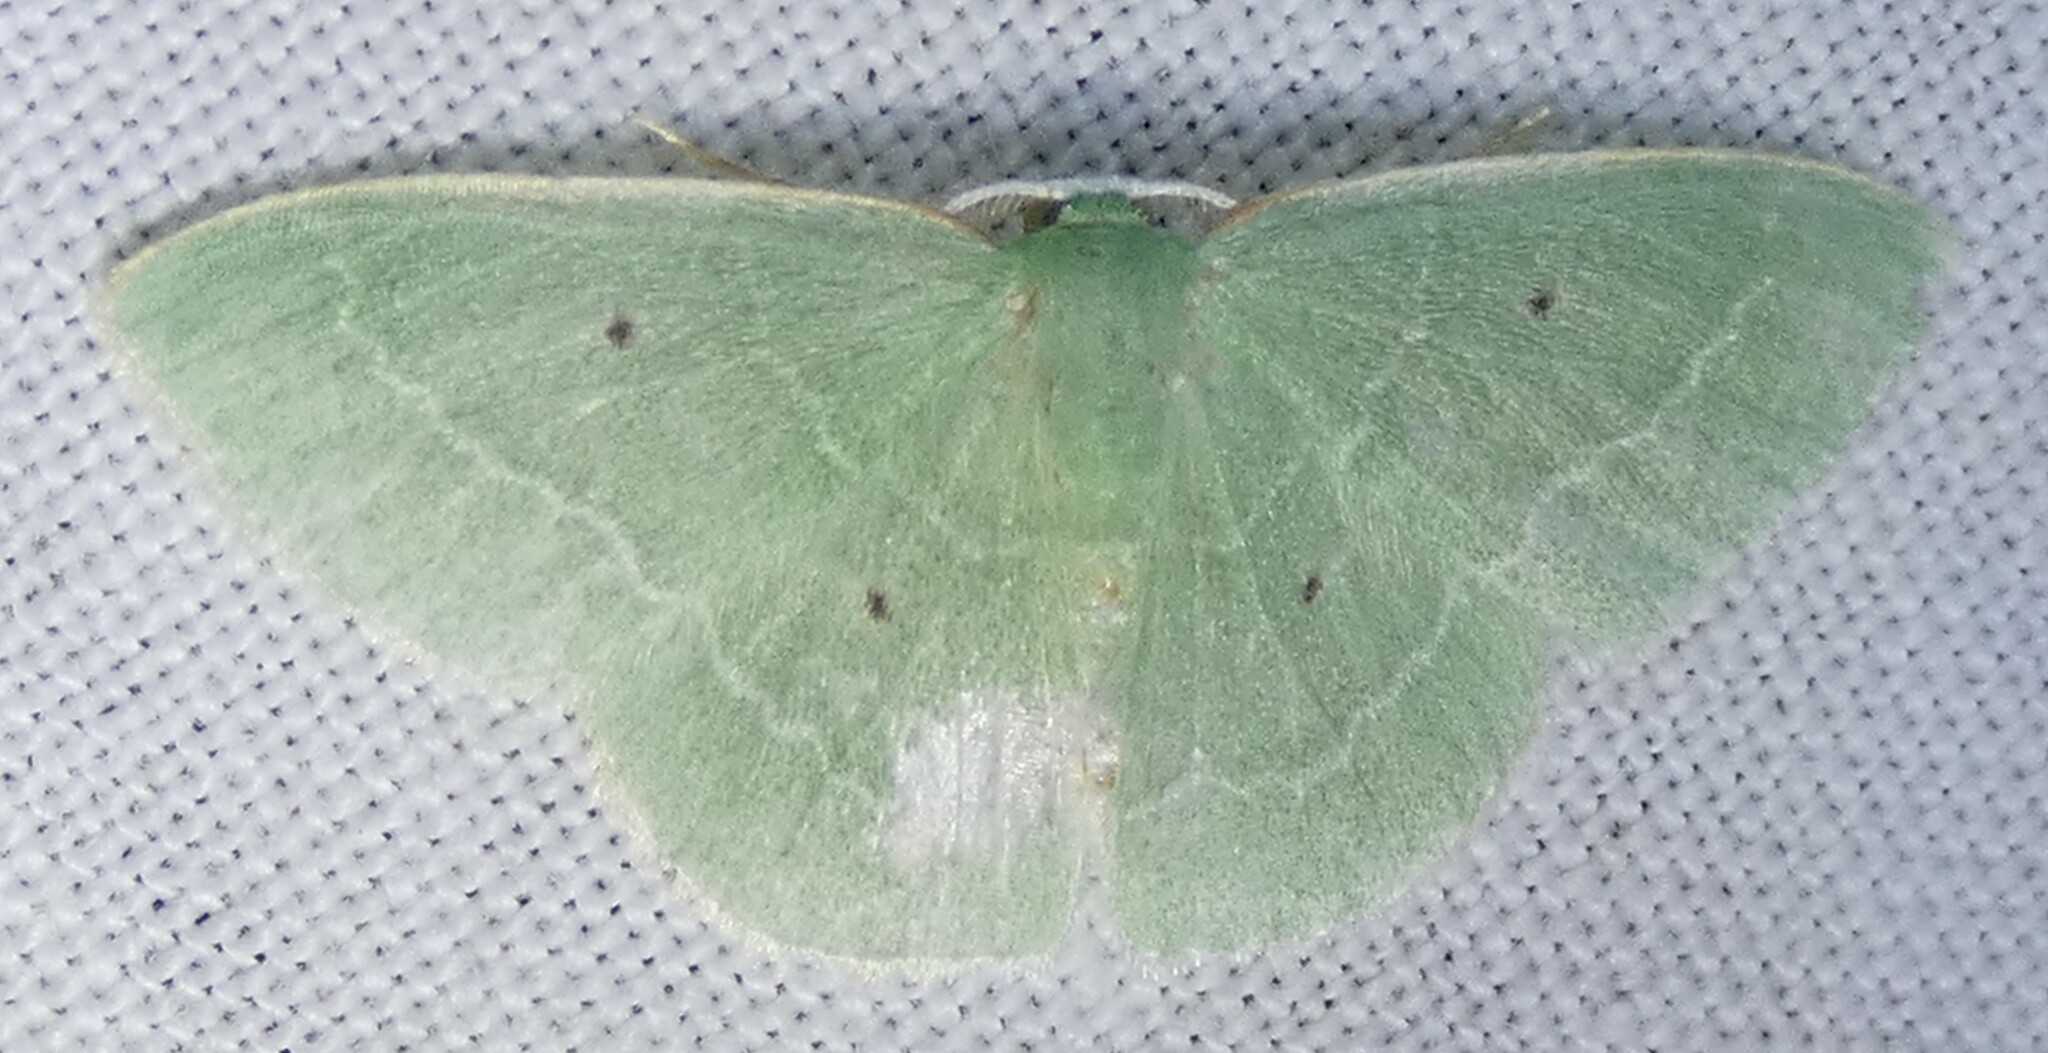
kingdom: Animalia
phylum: Arthropoda
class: Insecta
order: Lepidoptera
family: Geometridae
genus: Nemoria
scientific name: Nemoria elfa
